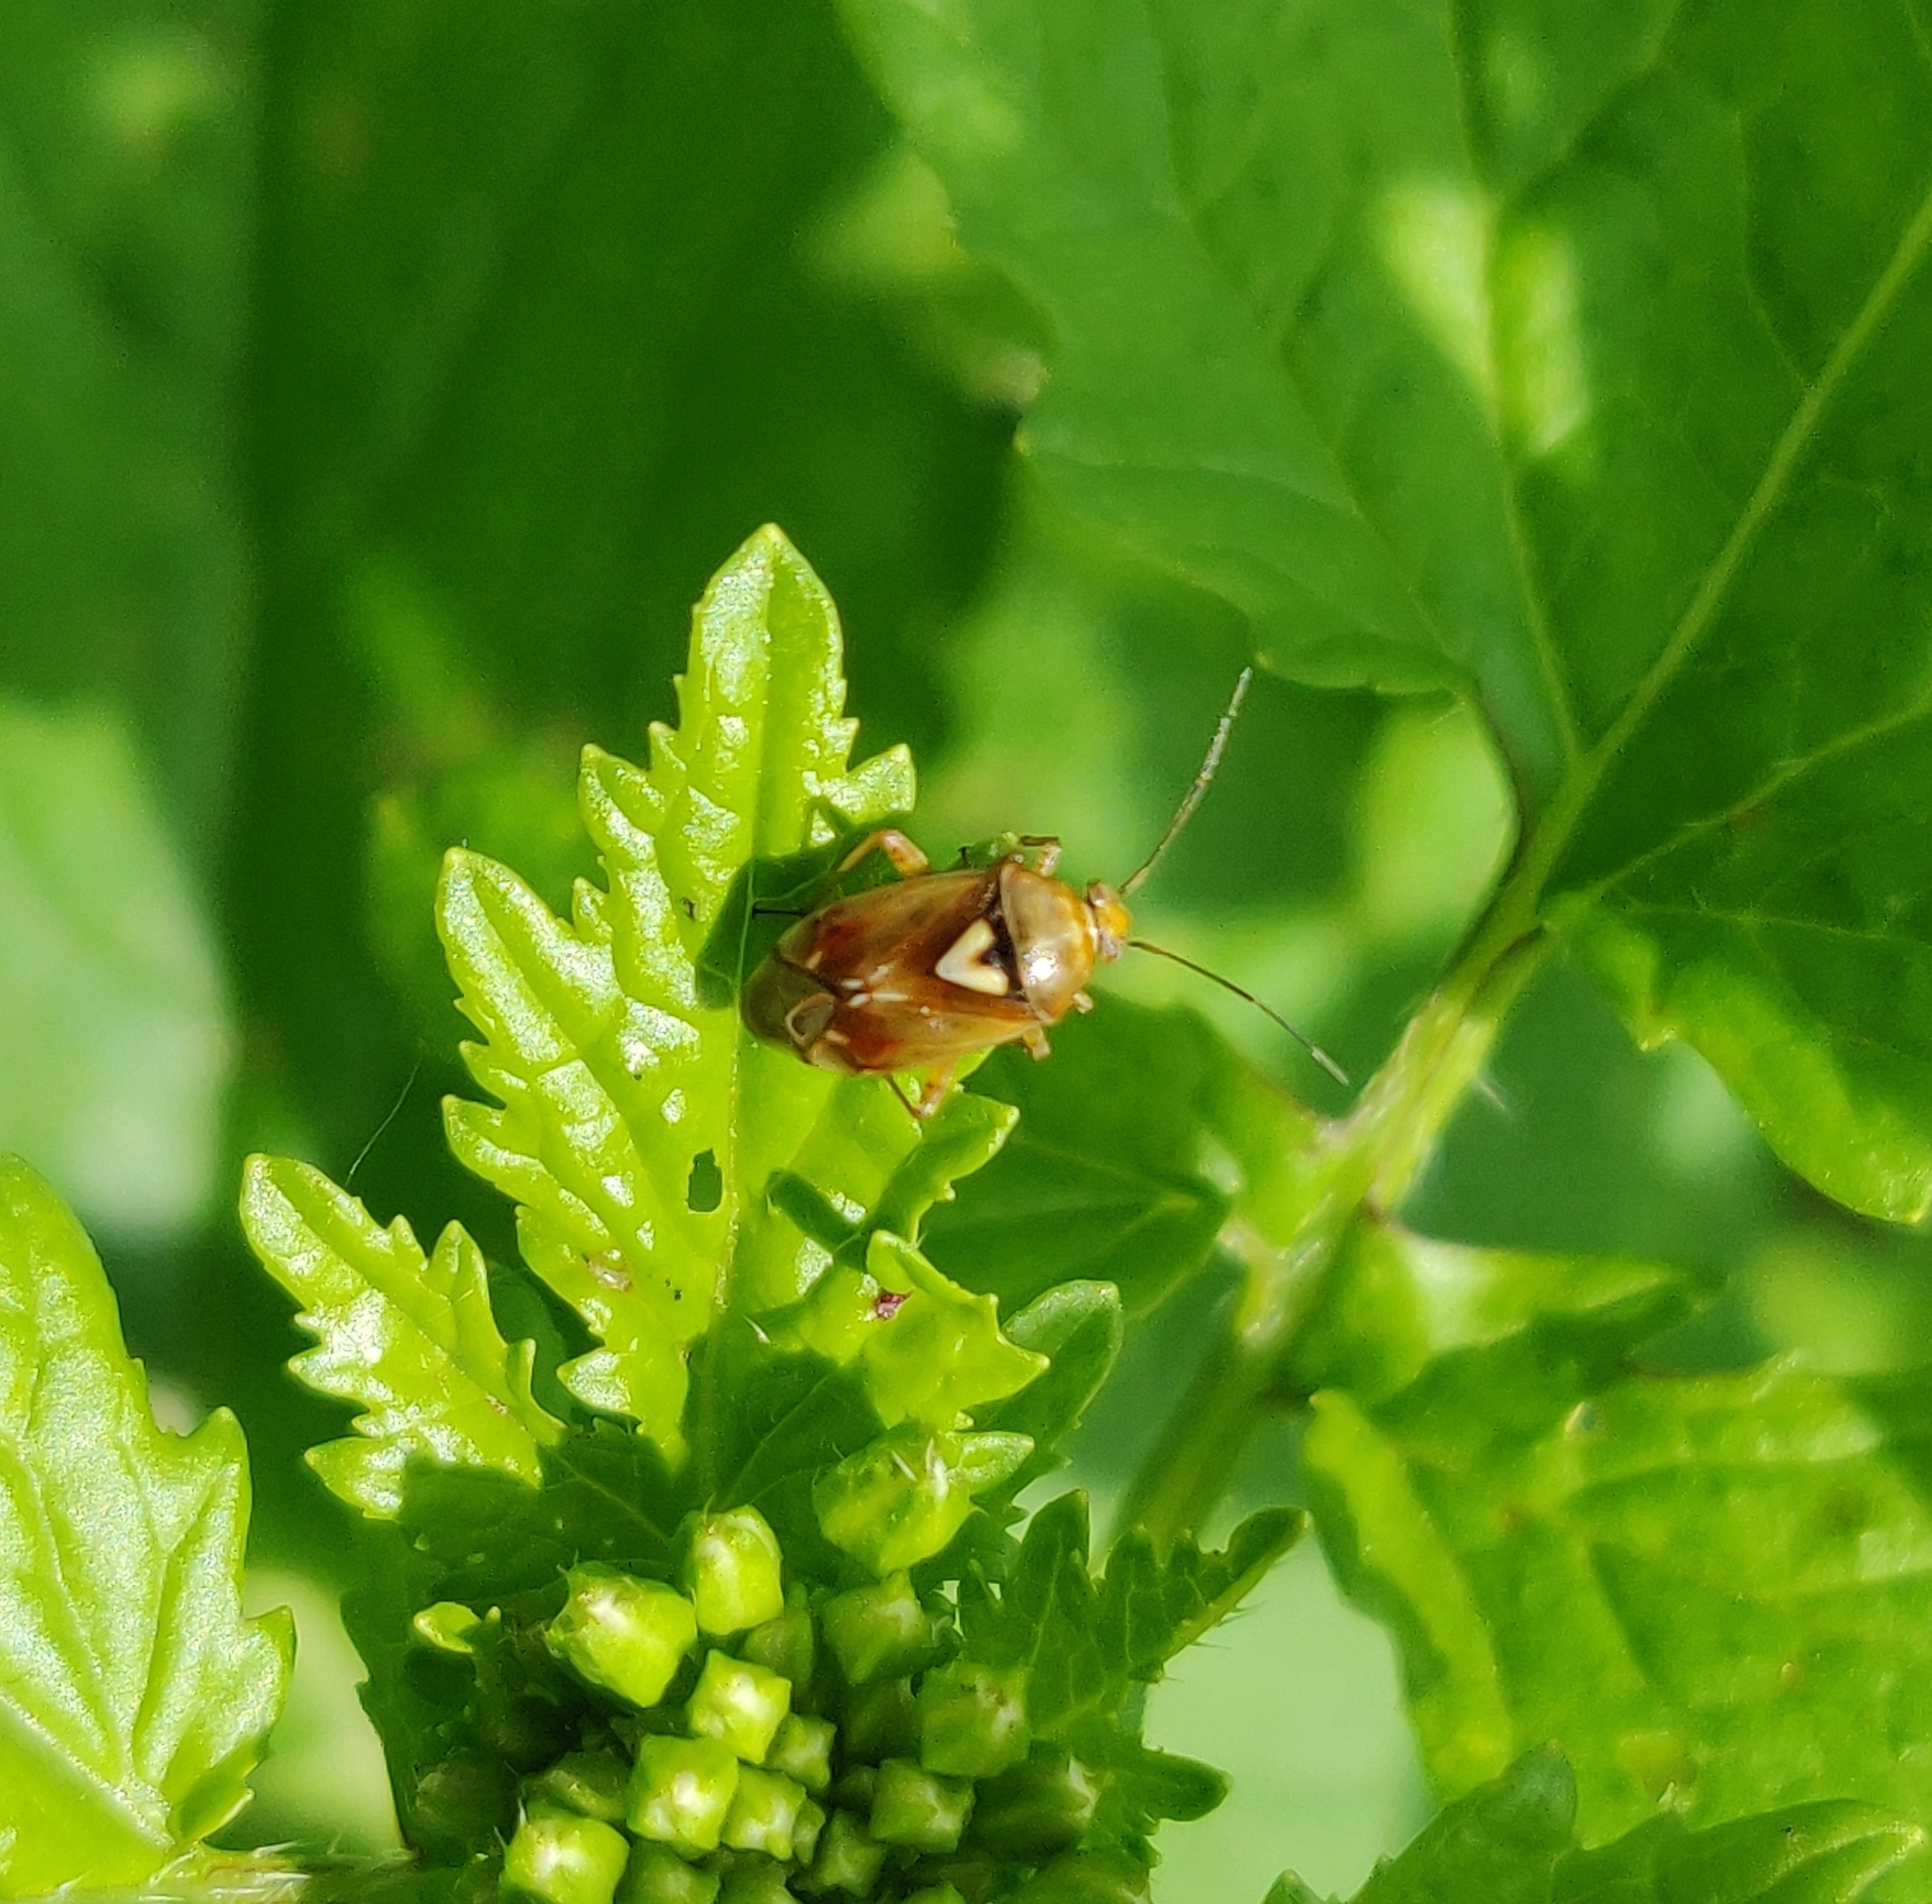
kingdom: Animalia
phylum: Arthropoda
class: Insecta
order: Hemiptera
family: Miridae
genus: Lygus
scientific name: Lygus pratensis
